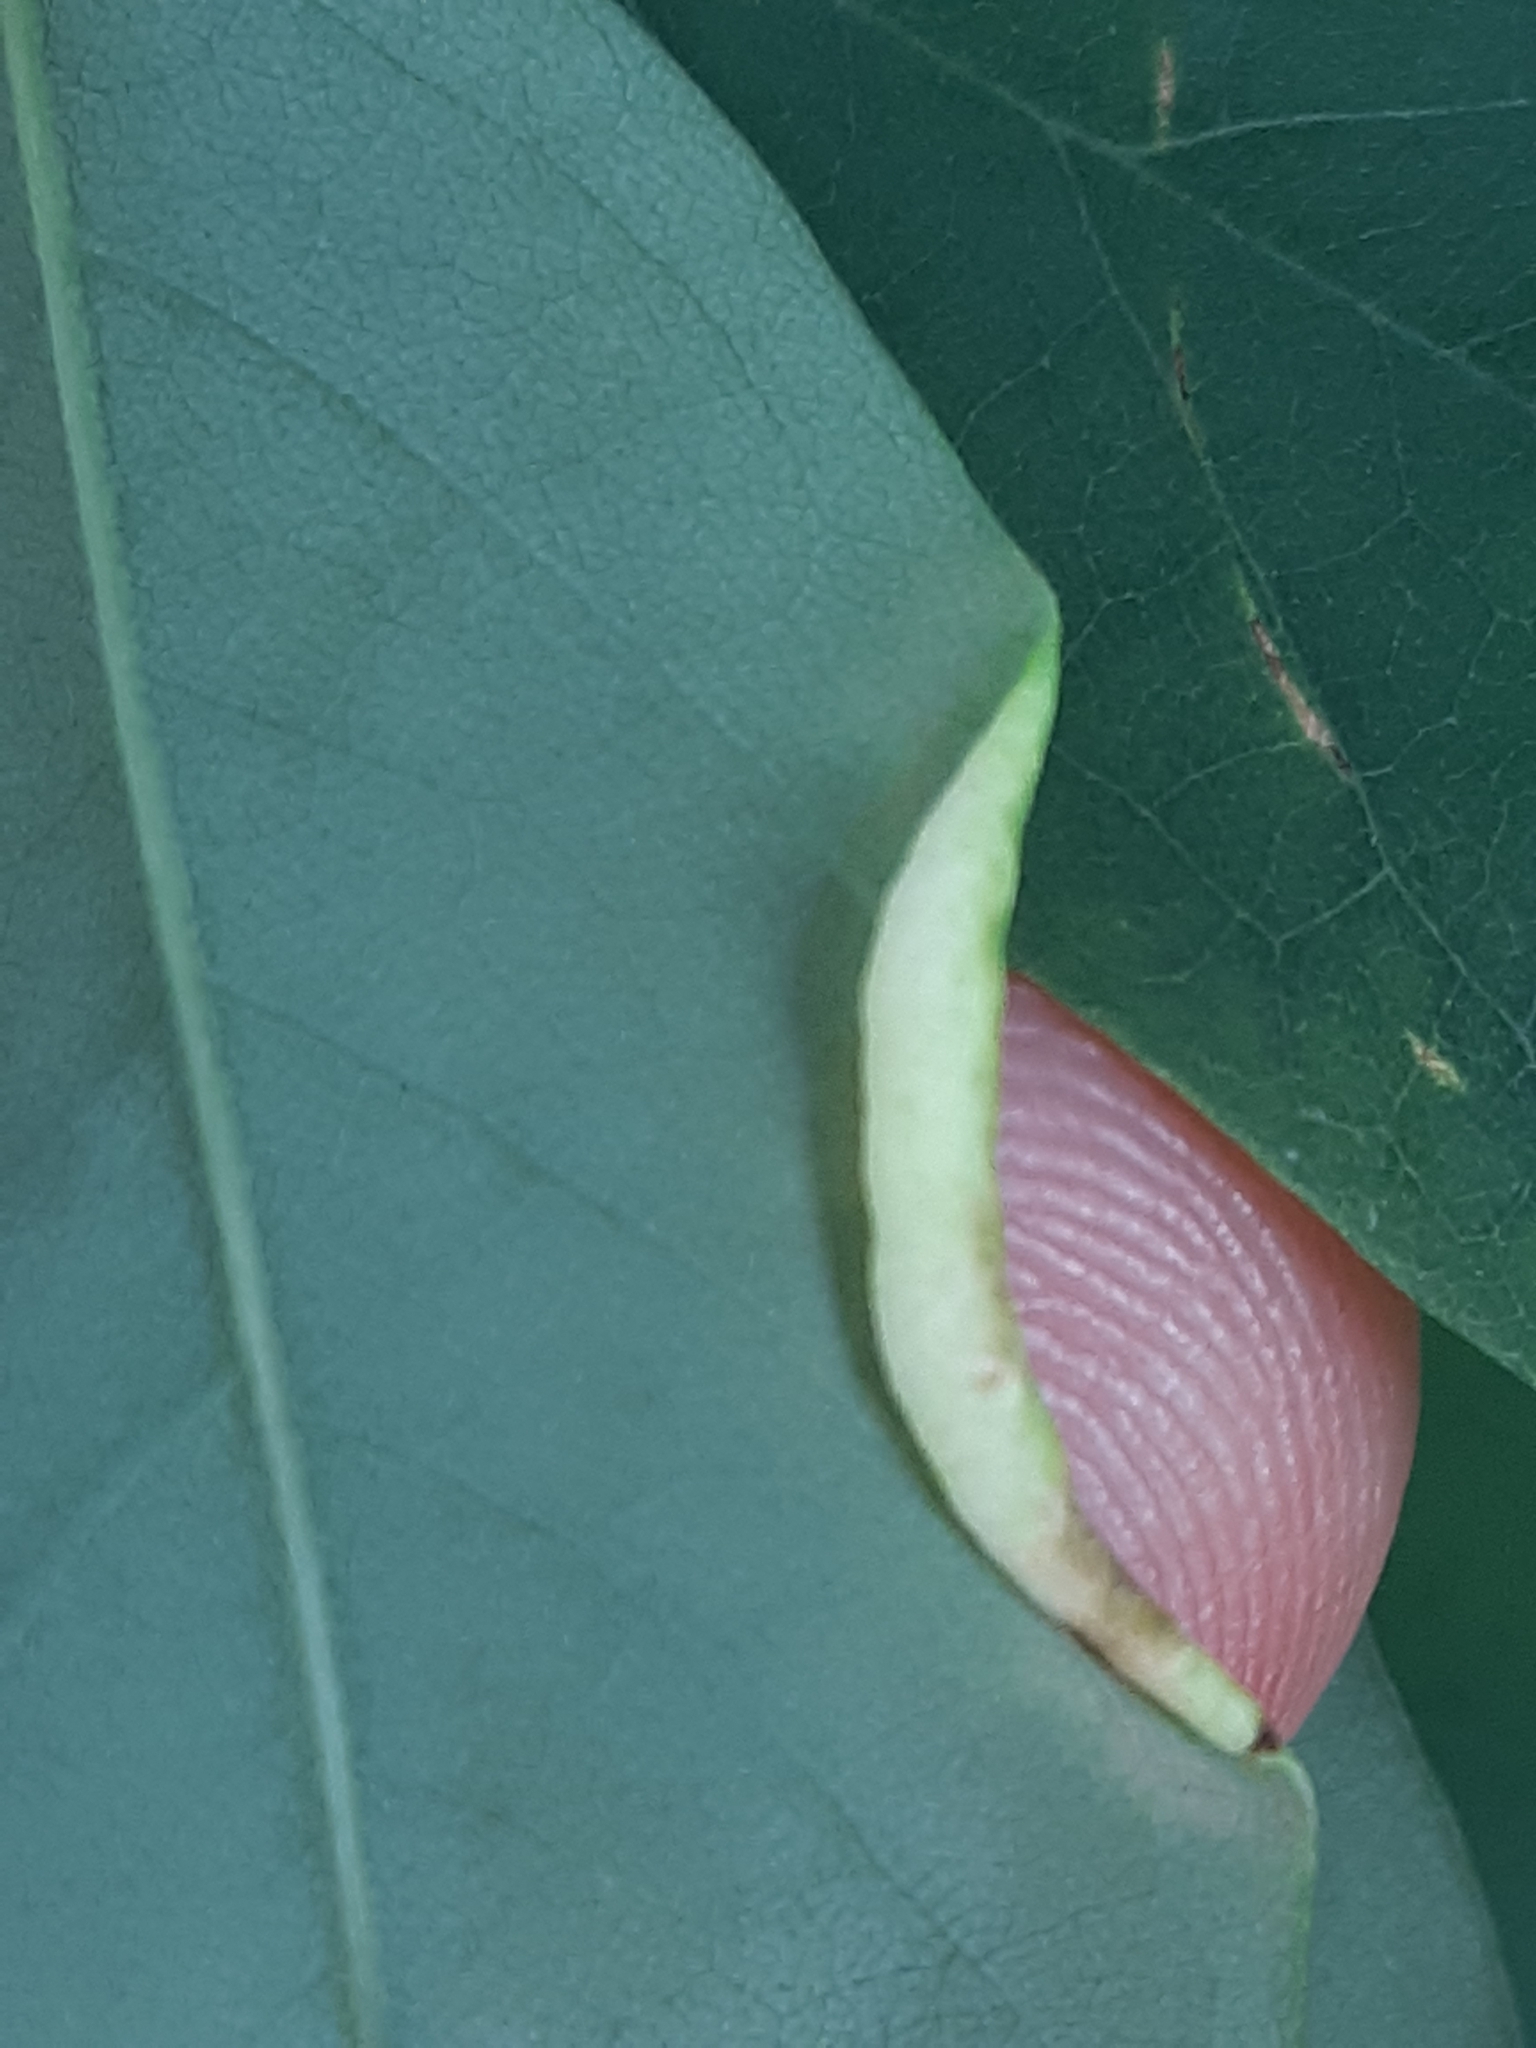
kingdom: Animalia
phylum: Arthropoda
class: Insecta
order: Diptera
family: Cecidomyiidae
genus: Obolodiplosis
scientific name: Obolodiplosis robiniae
